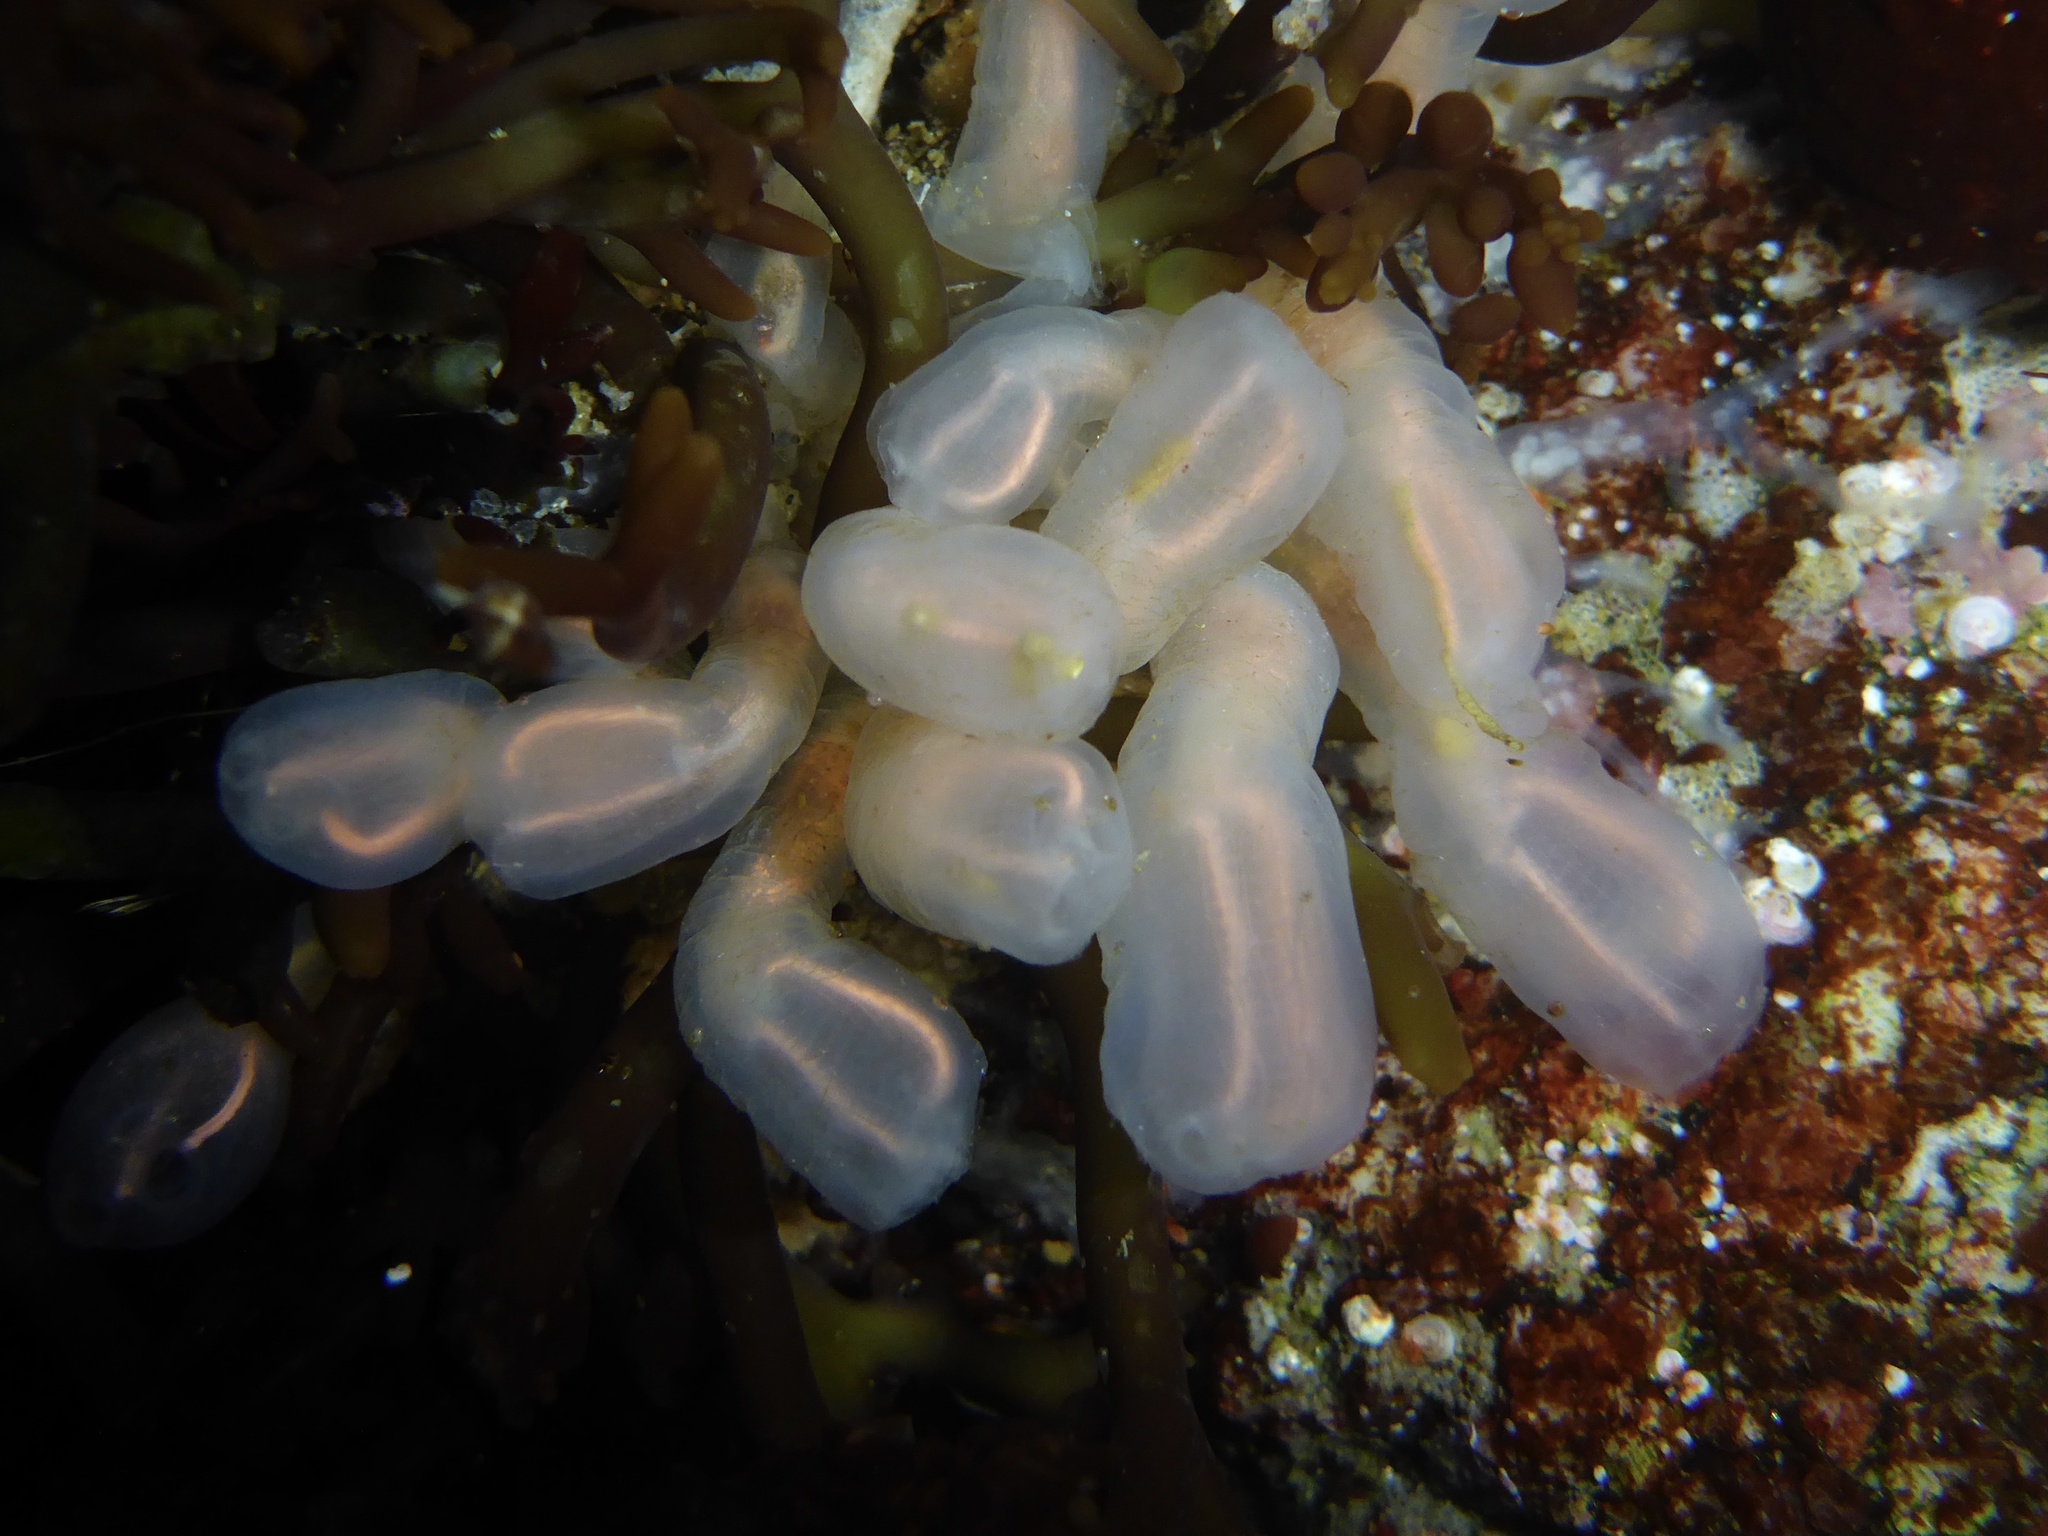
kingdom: Animalia
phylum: Chordata
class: Ascidiacea
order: Aplousobranchia
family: Clavelinidae
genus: Clavelina
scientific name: Clavelina huntsmani
